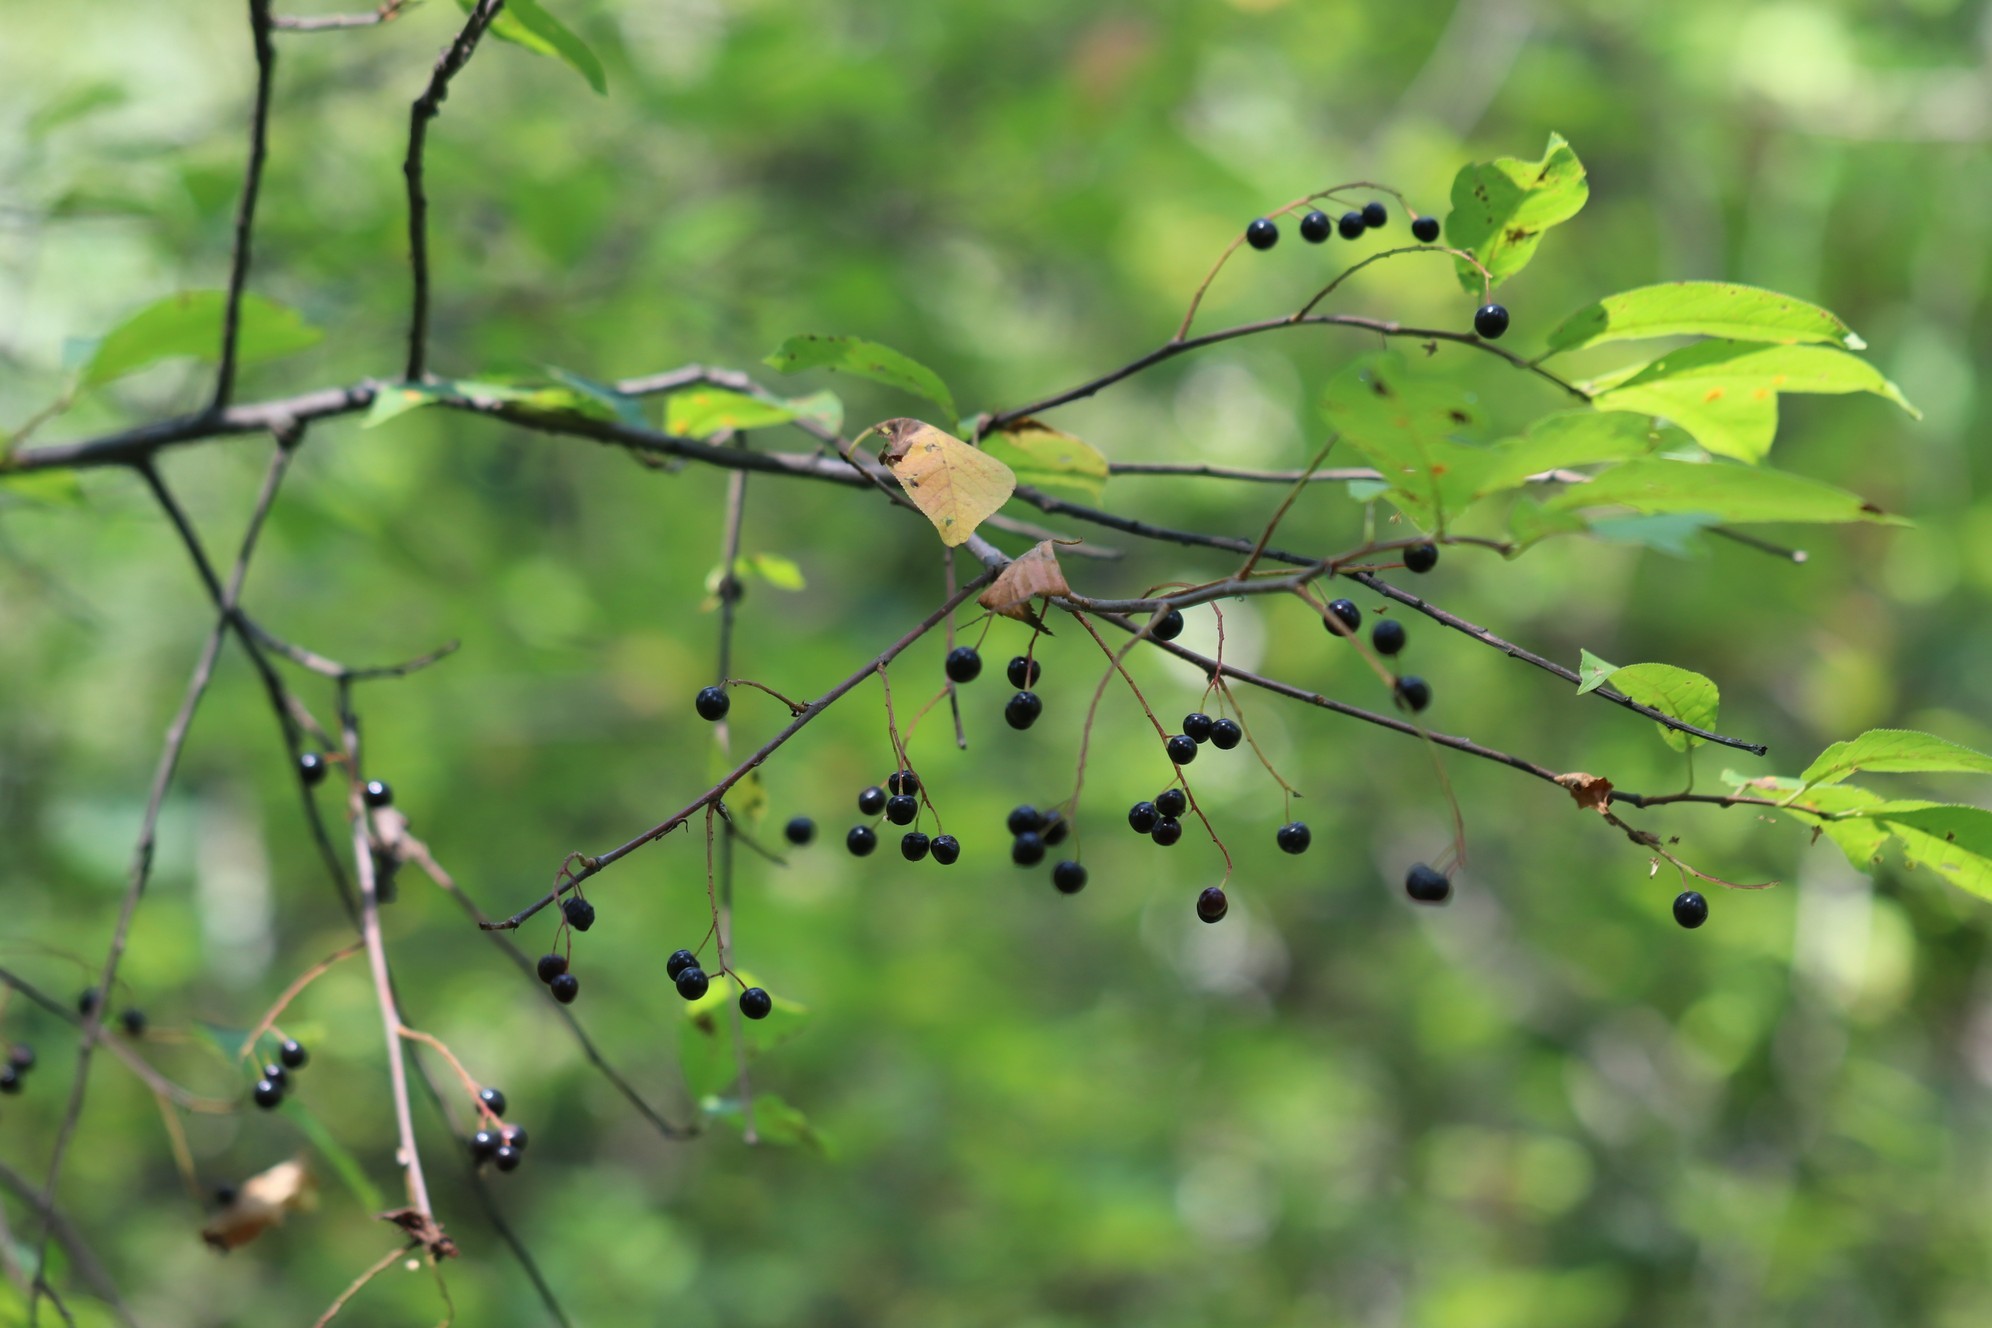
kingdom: Plantae
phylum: Tracheophyta
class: Magnoliopsida
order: Rosales
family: Rosaceae
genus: Prunus
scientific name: Prunus padus
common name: Bird cherry
